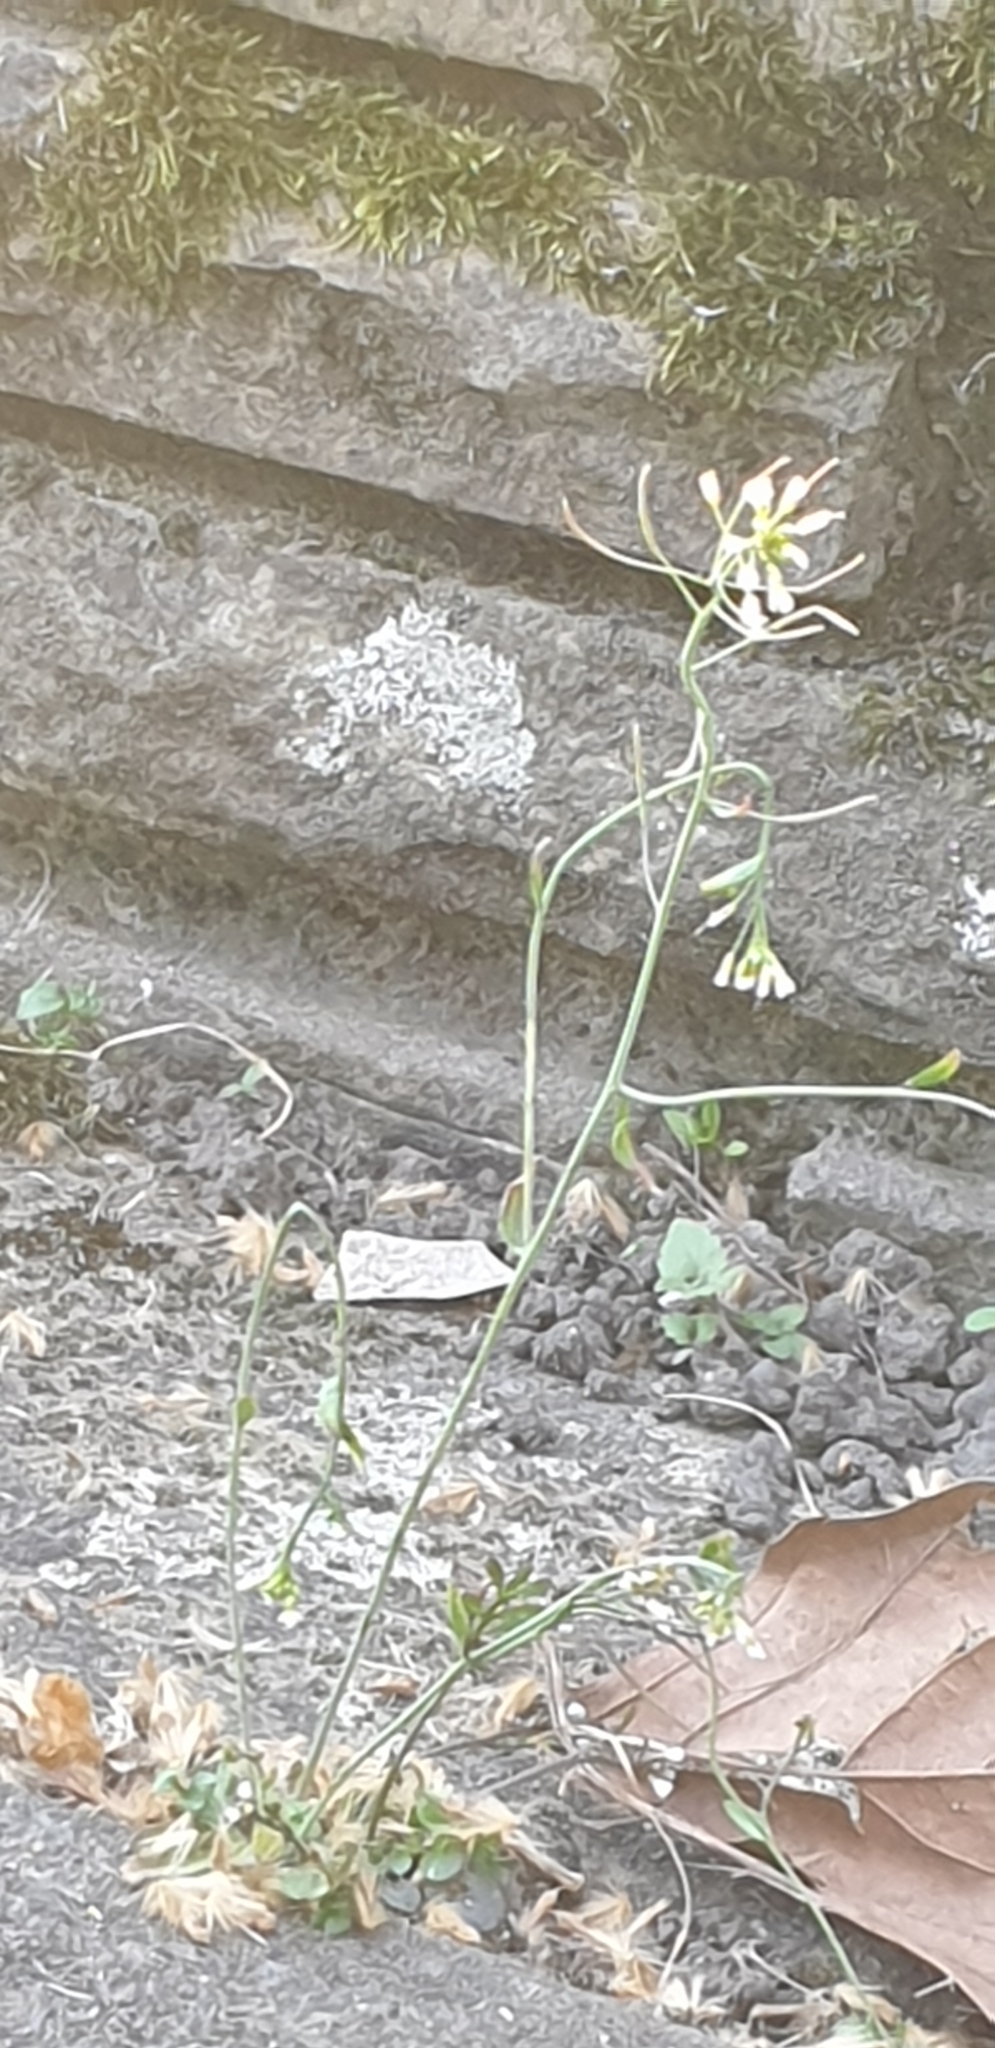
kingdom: Plantae
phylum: Tracheophyta
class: Magnoliopsida
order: Brassicales
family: Brassicaceae
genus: Arabidopsis
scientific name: Arabidopsis thaliana
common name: Thale cress
